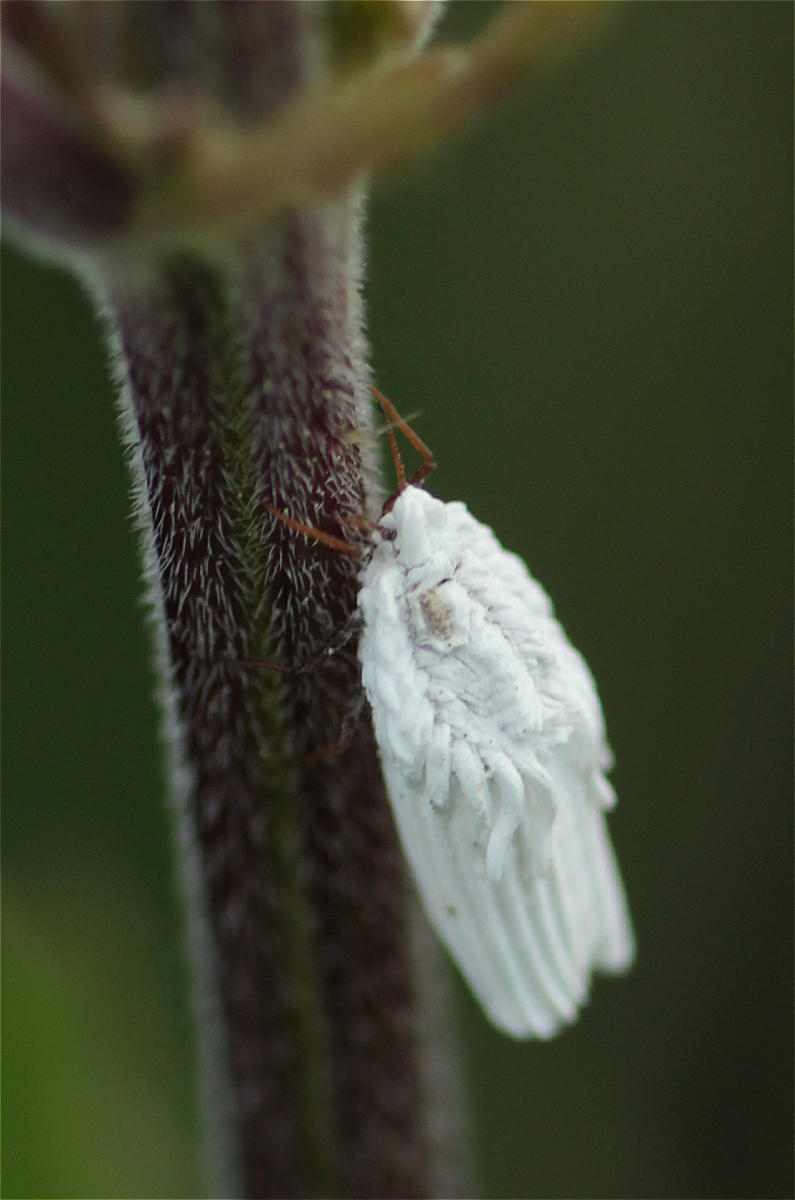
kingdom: Animalia
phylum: Arthropoda
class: Insecta
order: Hemiptera
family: Ortheziidae
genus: Orthezia
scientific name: Orthezia urticae
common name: Ensign coccid
